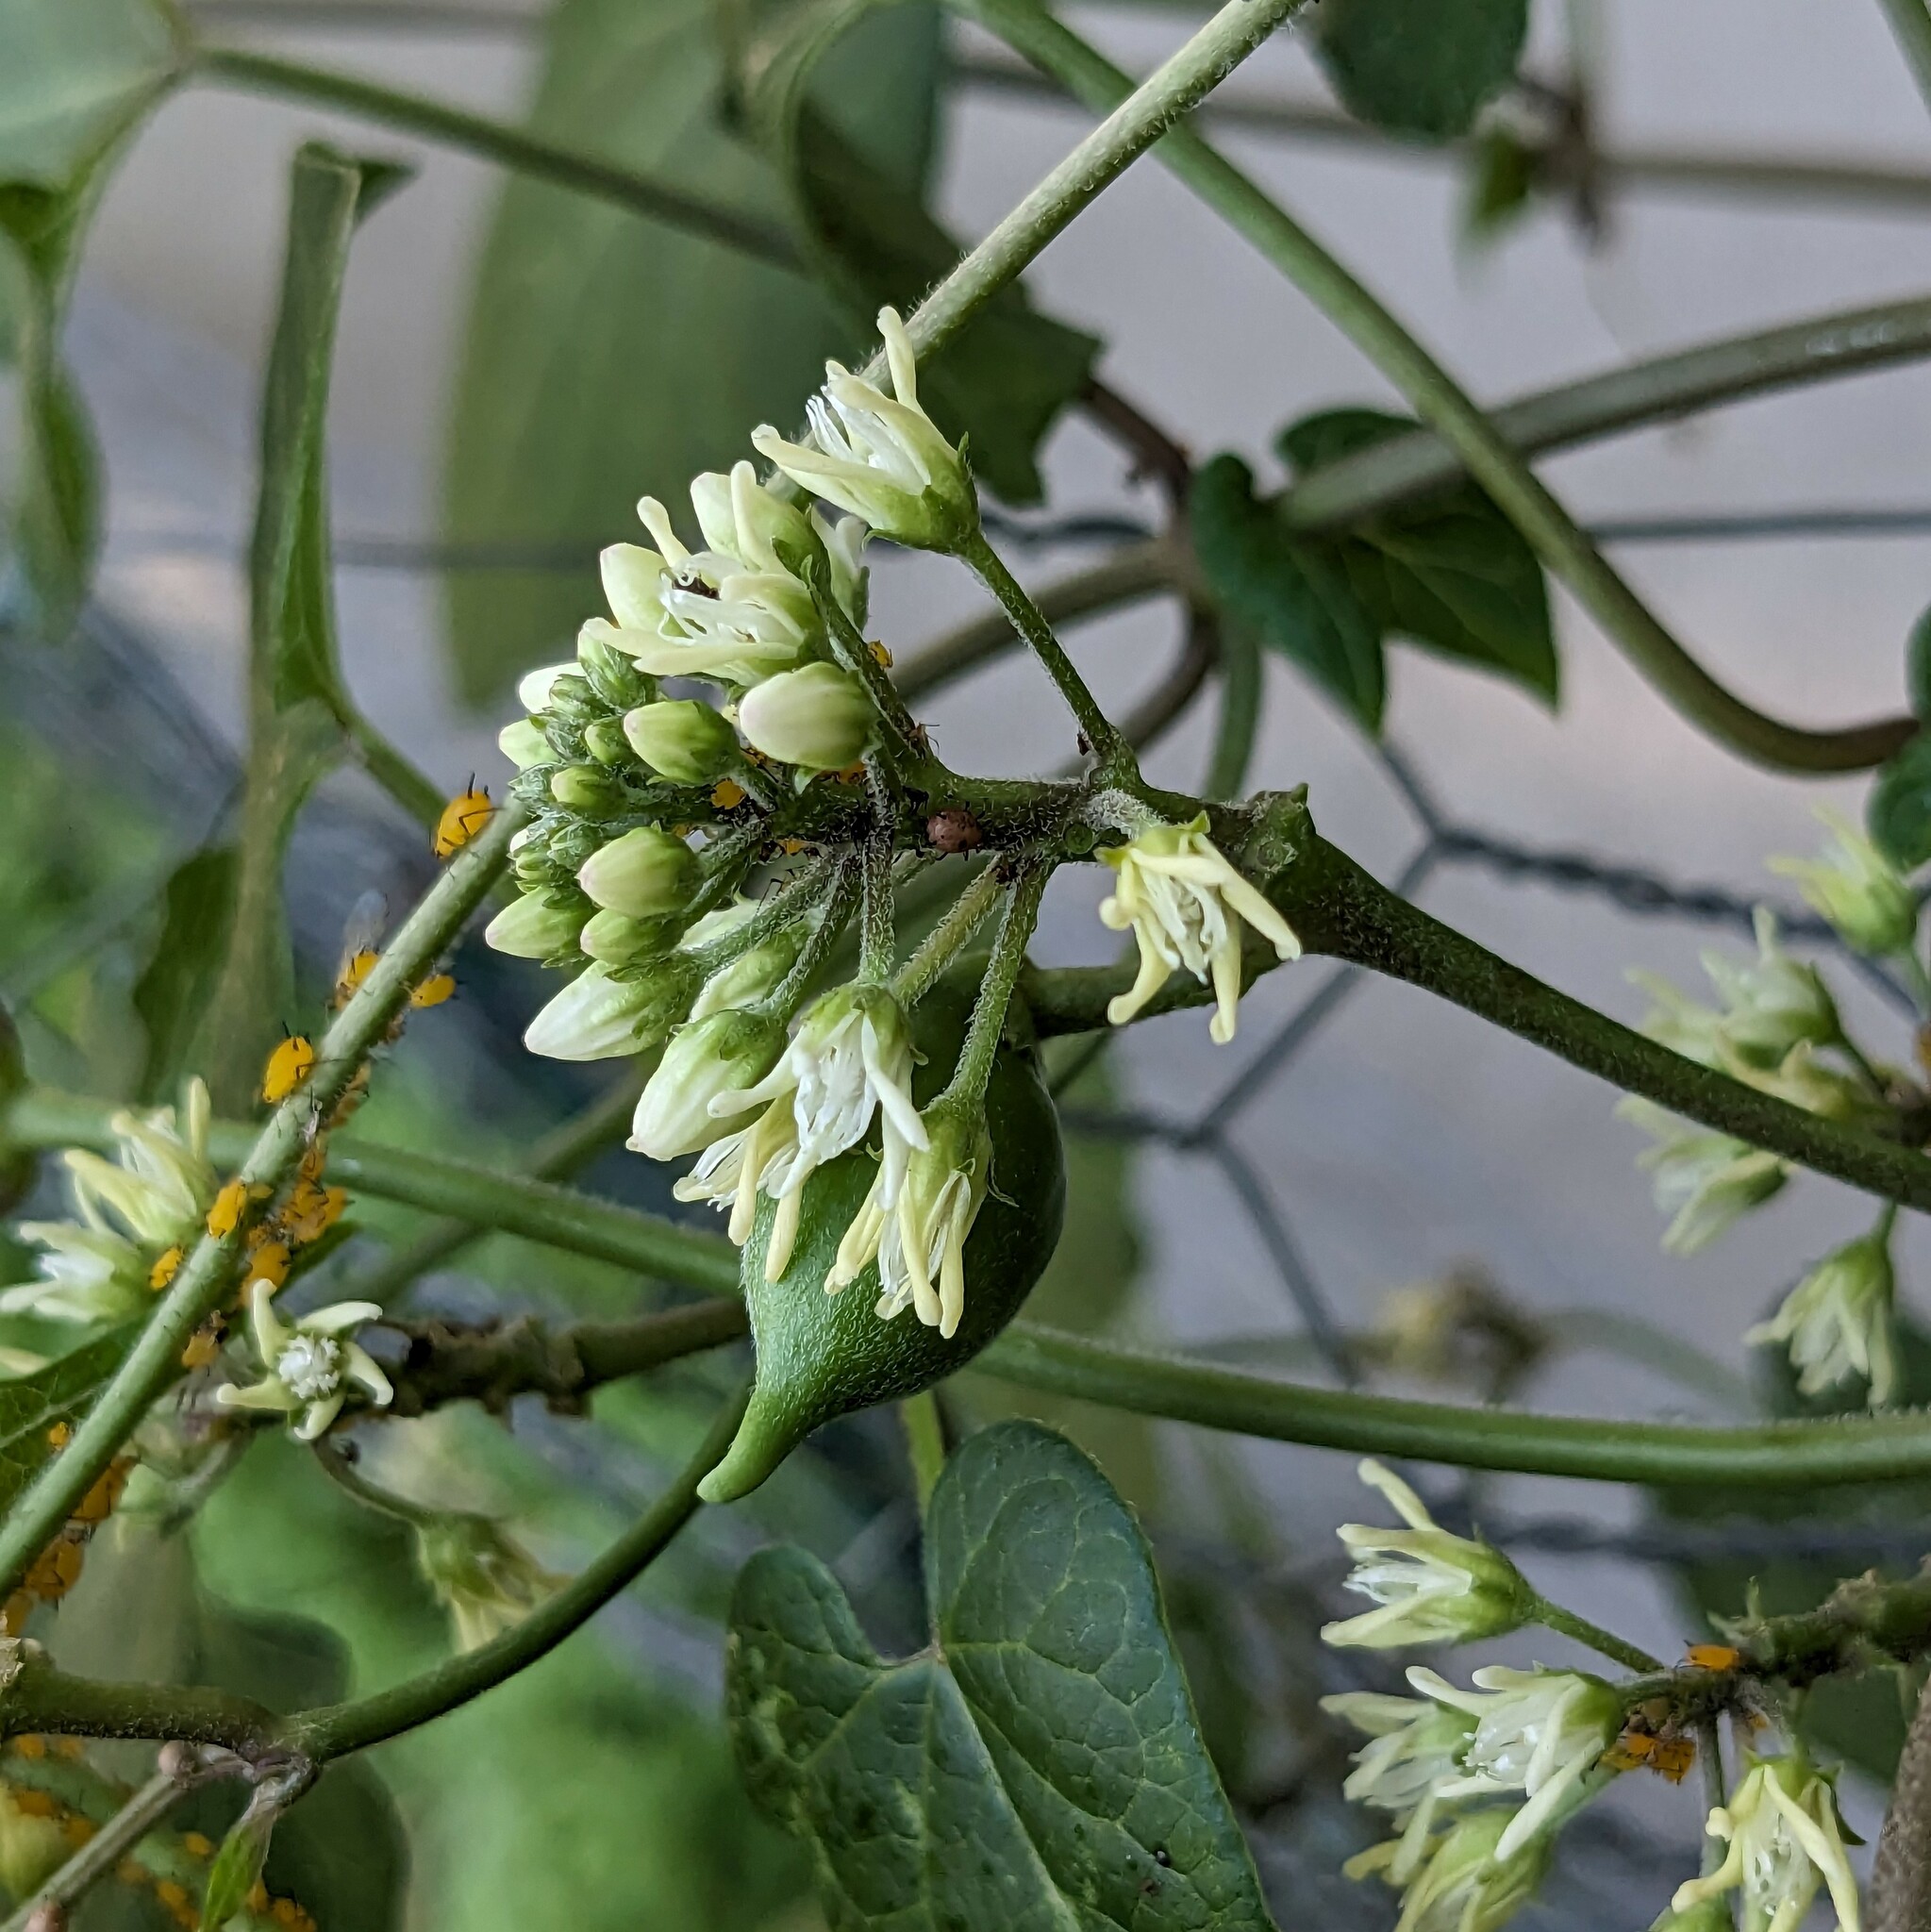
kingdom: Plantae
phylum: Tracheophyta
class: Magnoliopsida
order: Gentianales
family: Apocynaceae
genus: Cynanchum
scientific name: Cynanchum laeve
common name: Sandvine
